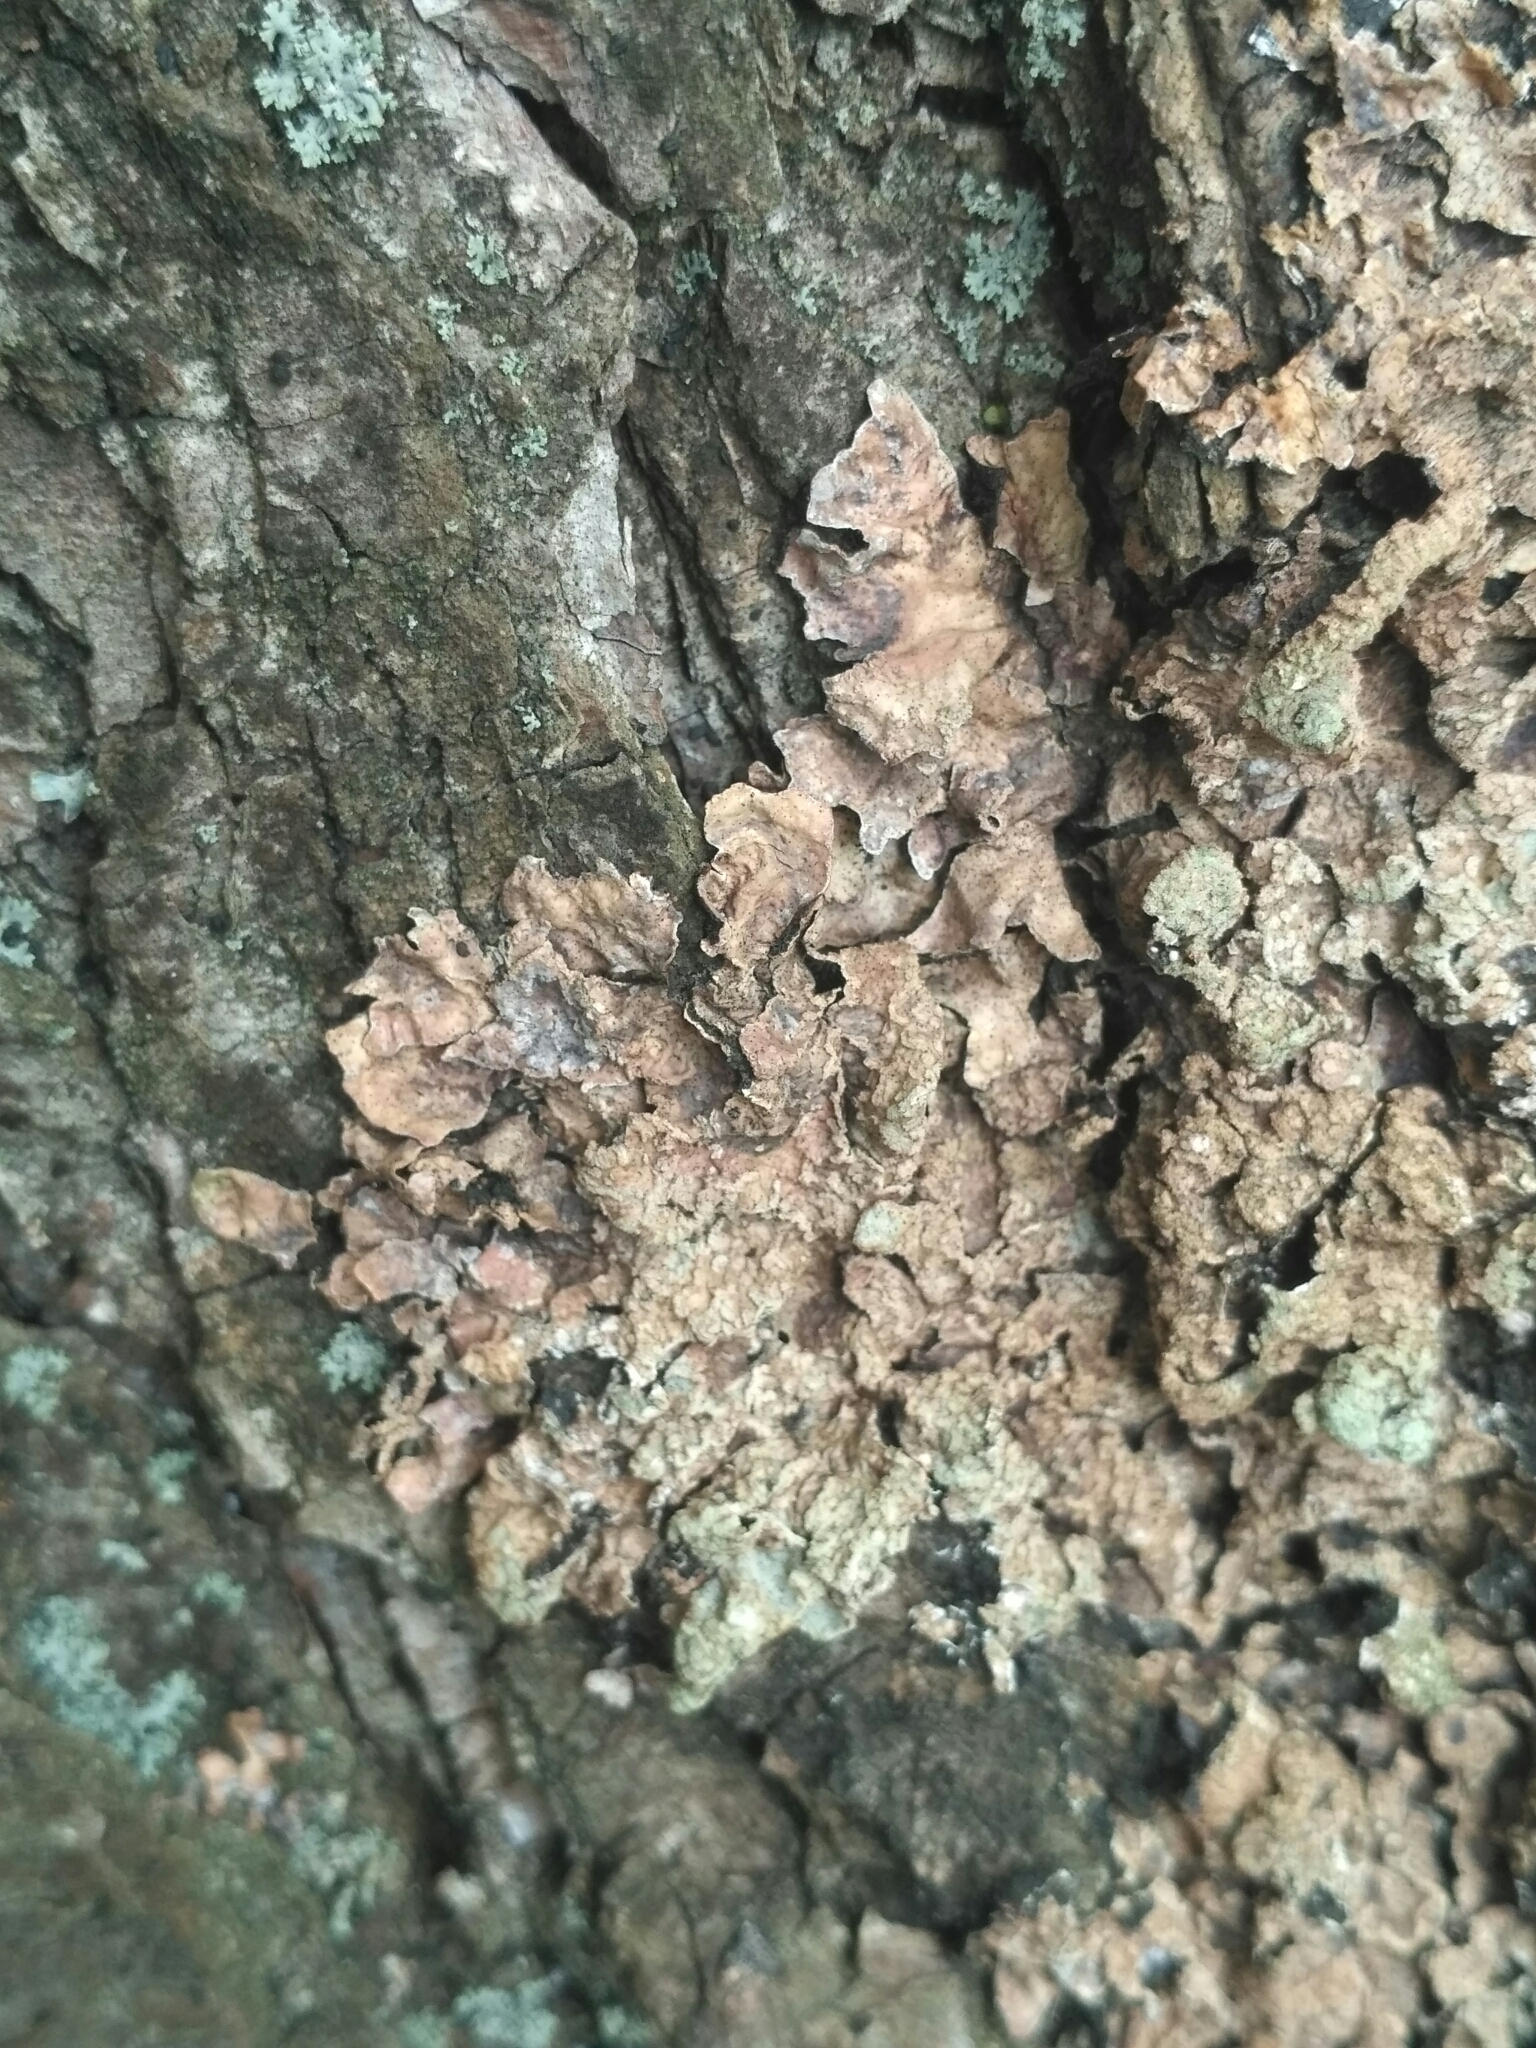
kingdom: Fungi
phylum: Ascomycota
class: Lecanoromycetes
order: Lecanorales
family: Parmeliaceae
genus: Parmelia
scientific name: Parmelia sulcata
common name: Netted shield lichen
